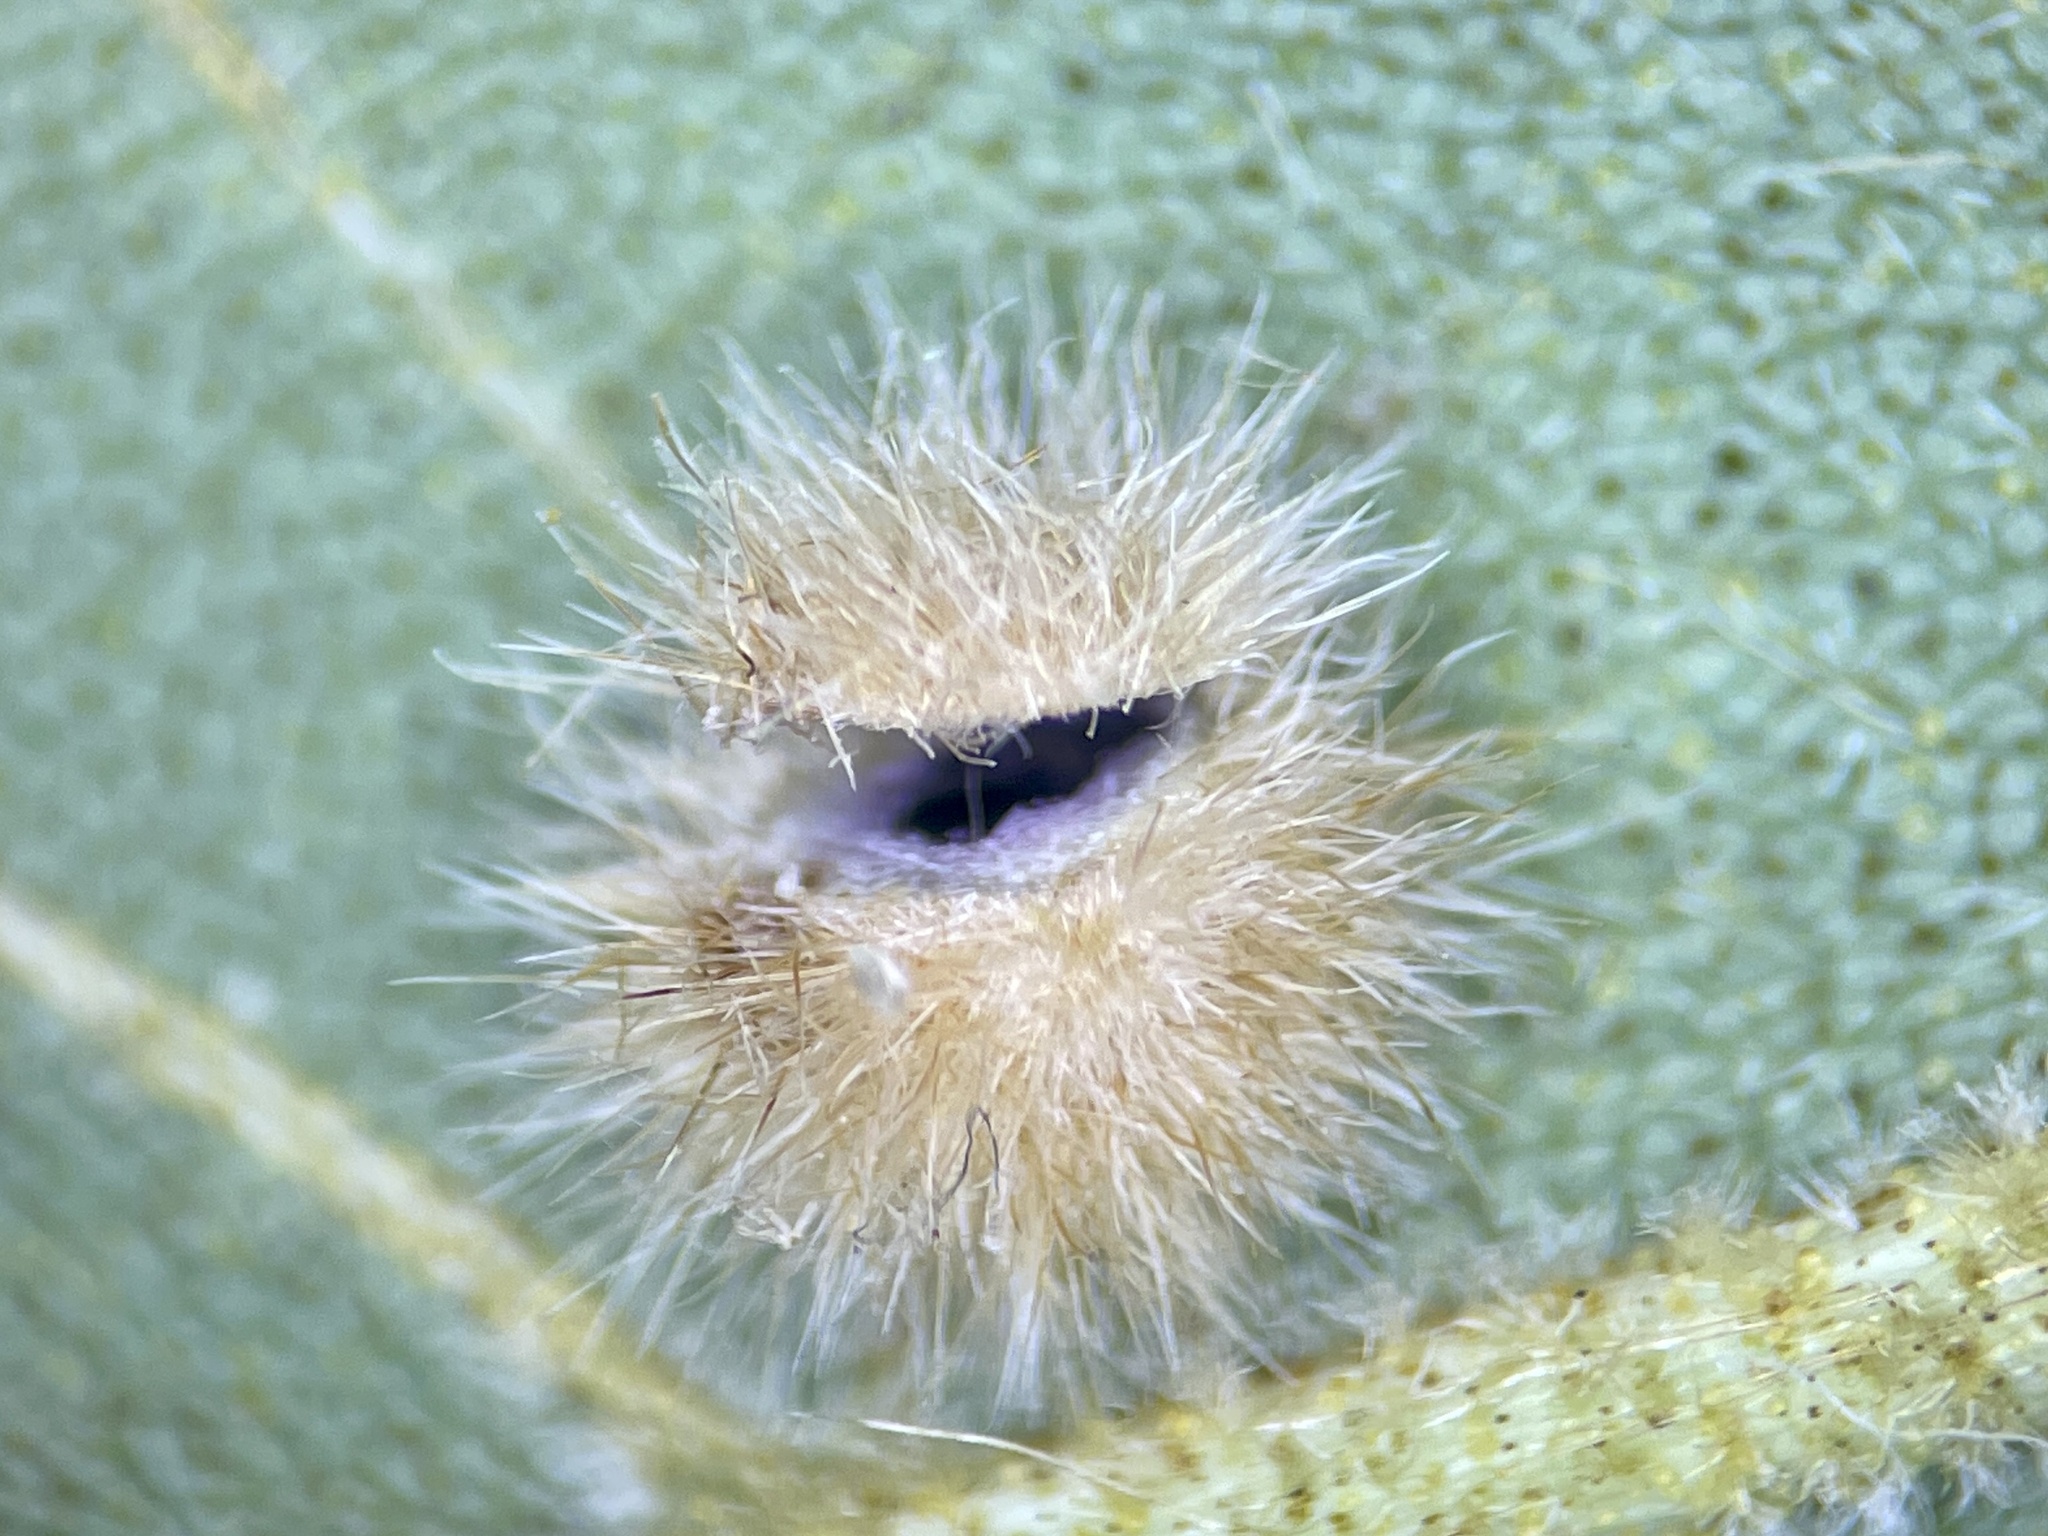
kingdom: Animalia
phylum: Arthropoda
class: Insecta
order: Diptera
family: Cecidomyiidae
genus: Caryomyia
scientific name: Caryomyia purpurea
